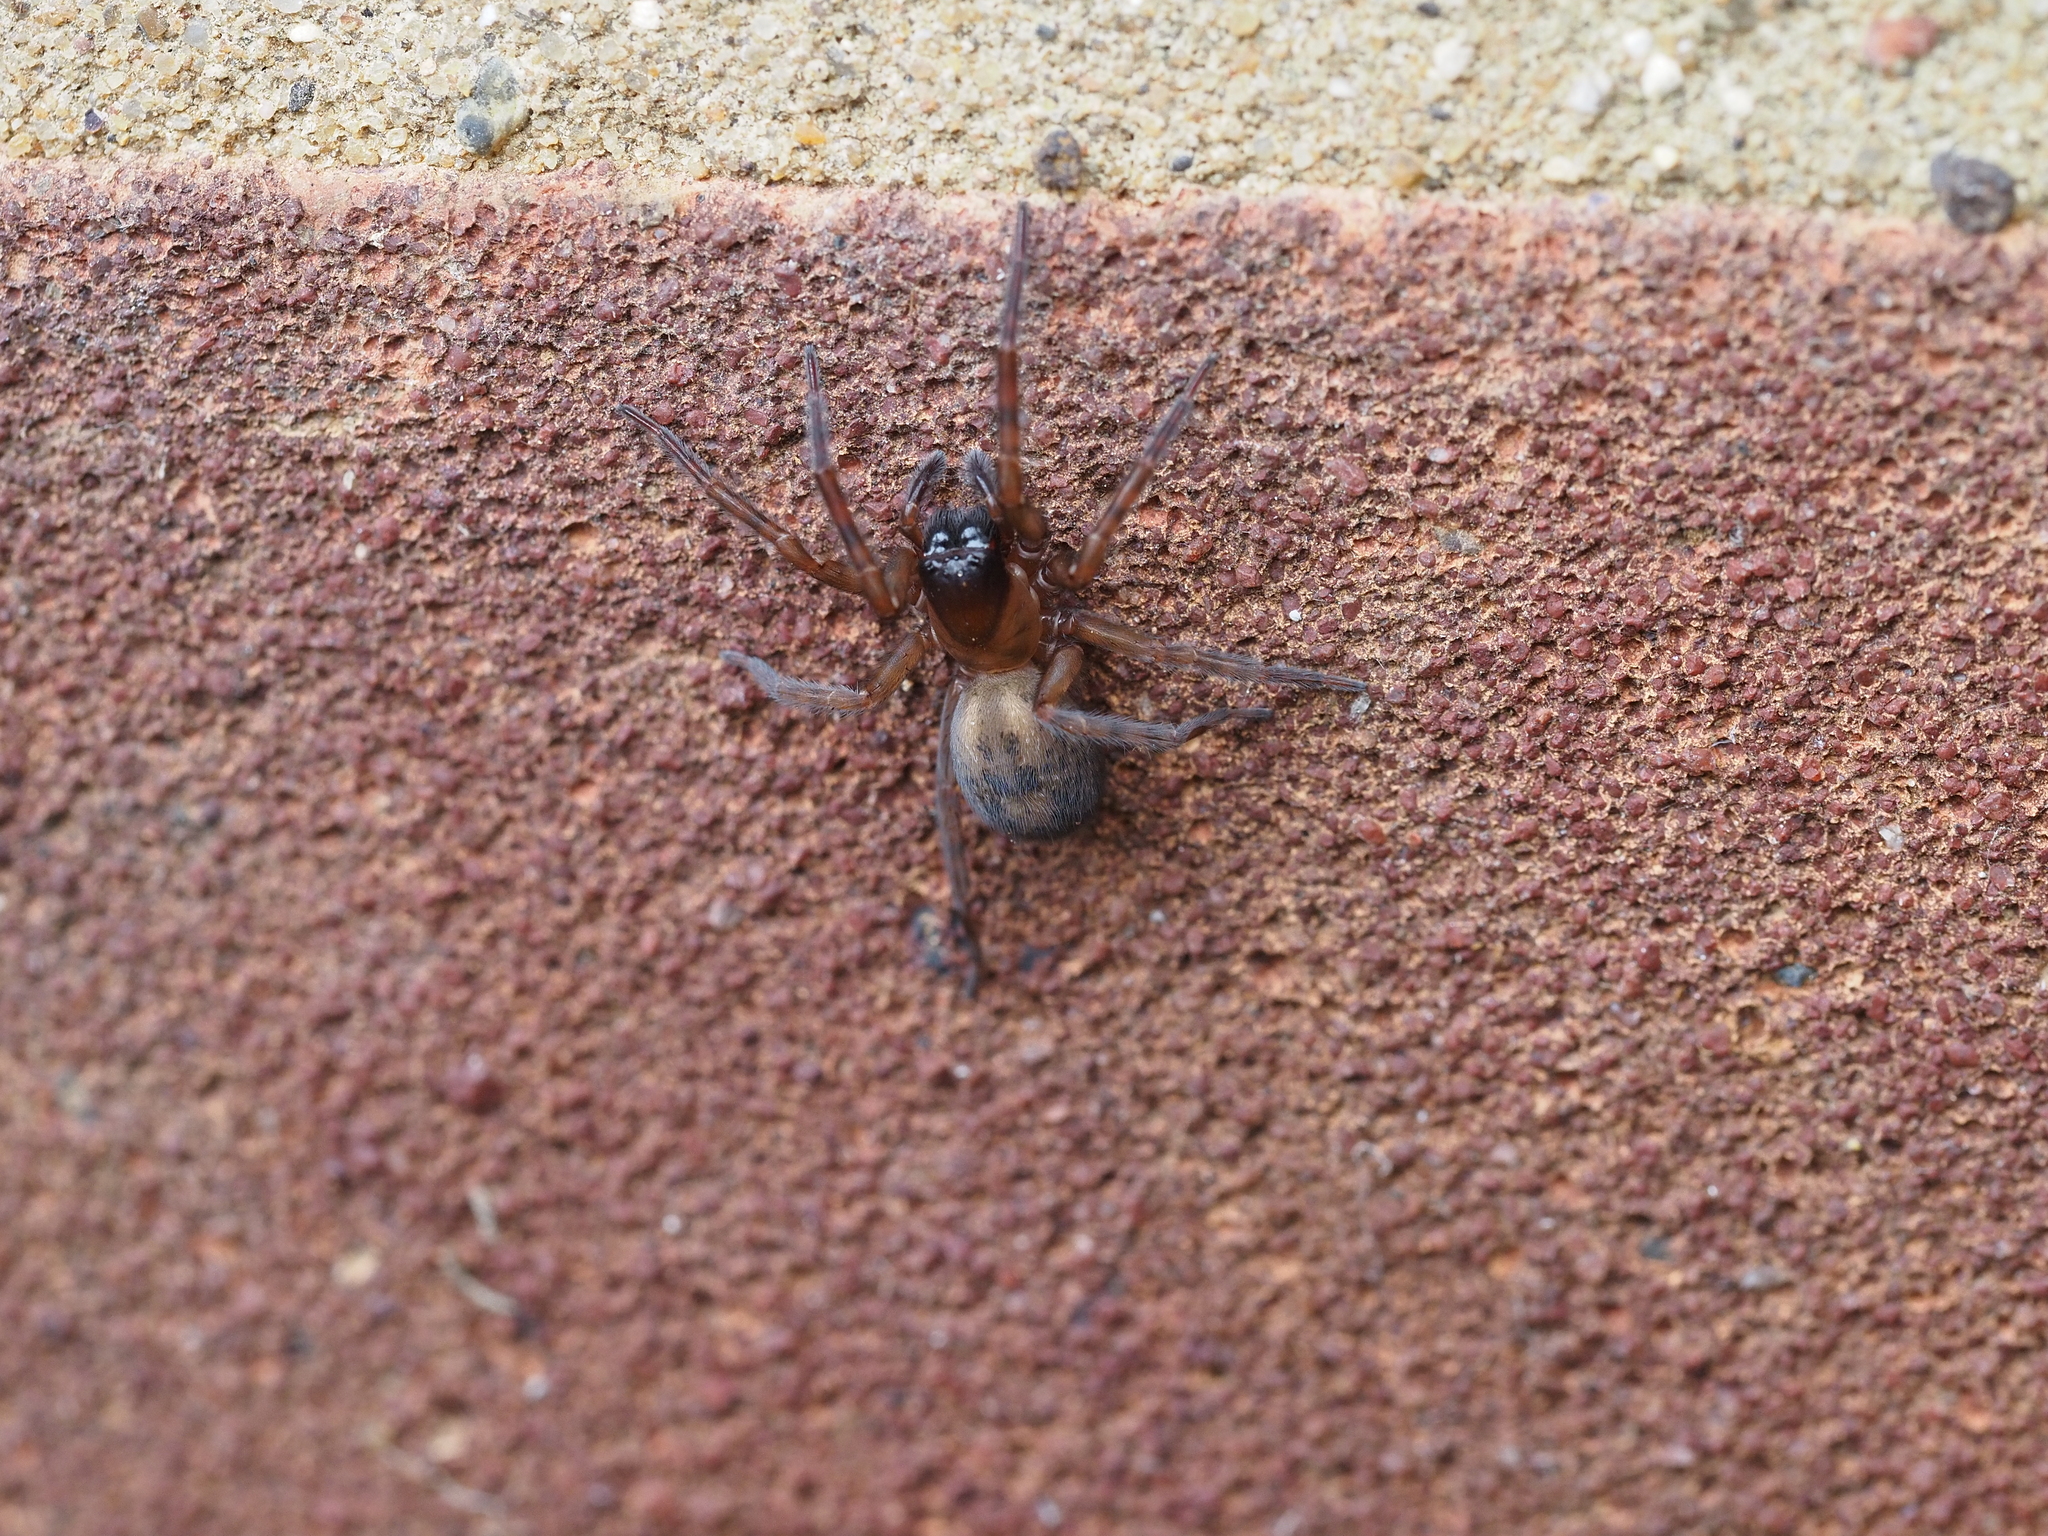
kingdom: Animalia
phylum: Arthropoda
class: Arachnida
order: Araneae
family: Amaurobiidae
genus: Amaurobius
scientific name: Amaurobius
